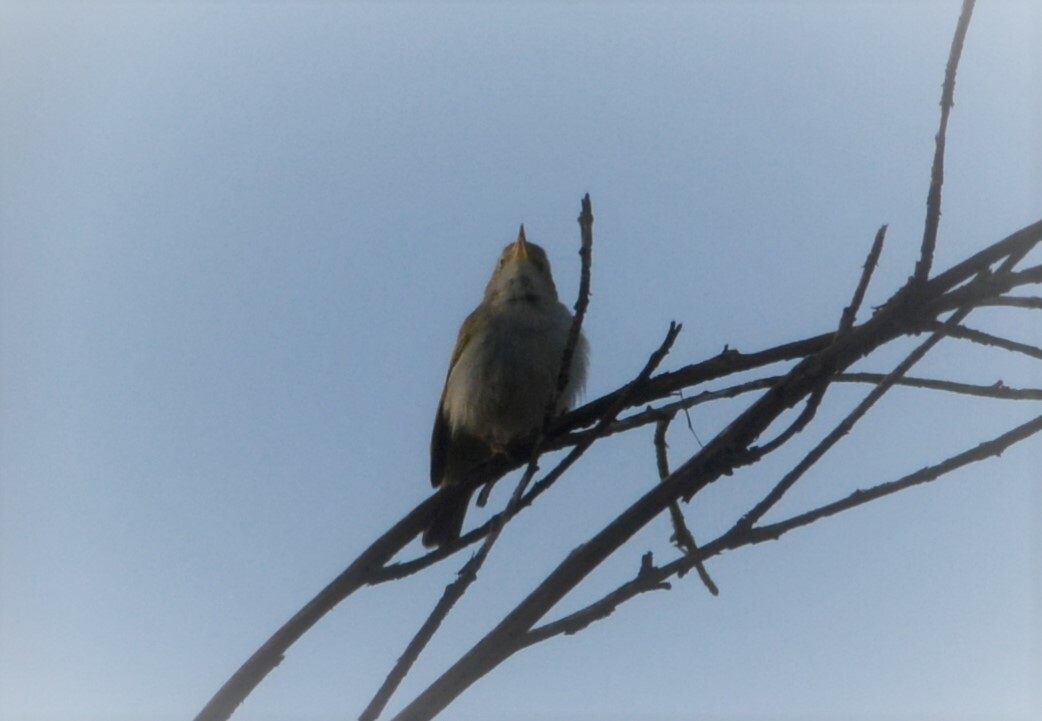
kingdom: Animalia
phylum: Chordata
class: Aves
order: Passeriformes
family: Phylloscopidae
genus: Phylloscopus
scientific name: Phylloscopus bonelli
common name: Western bonelli's warbler
